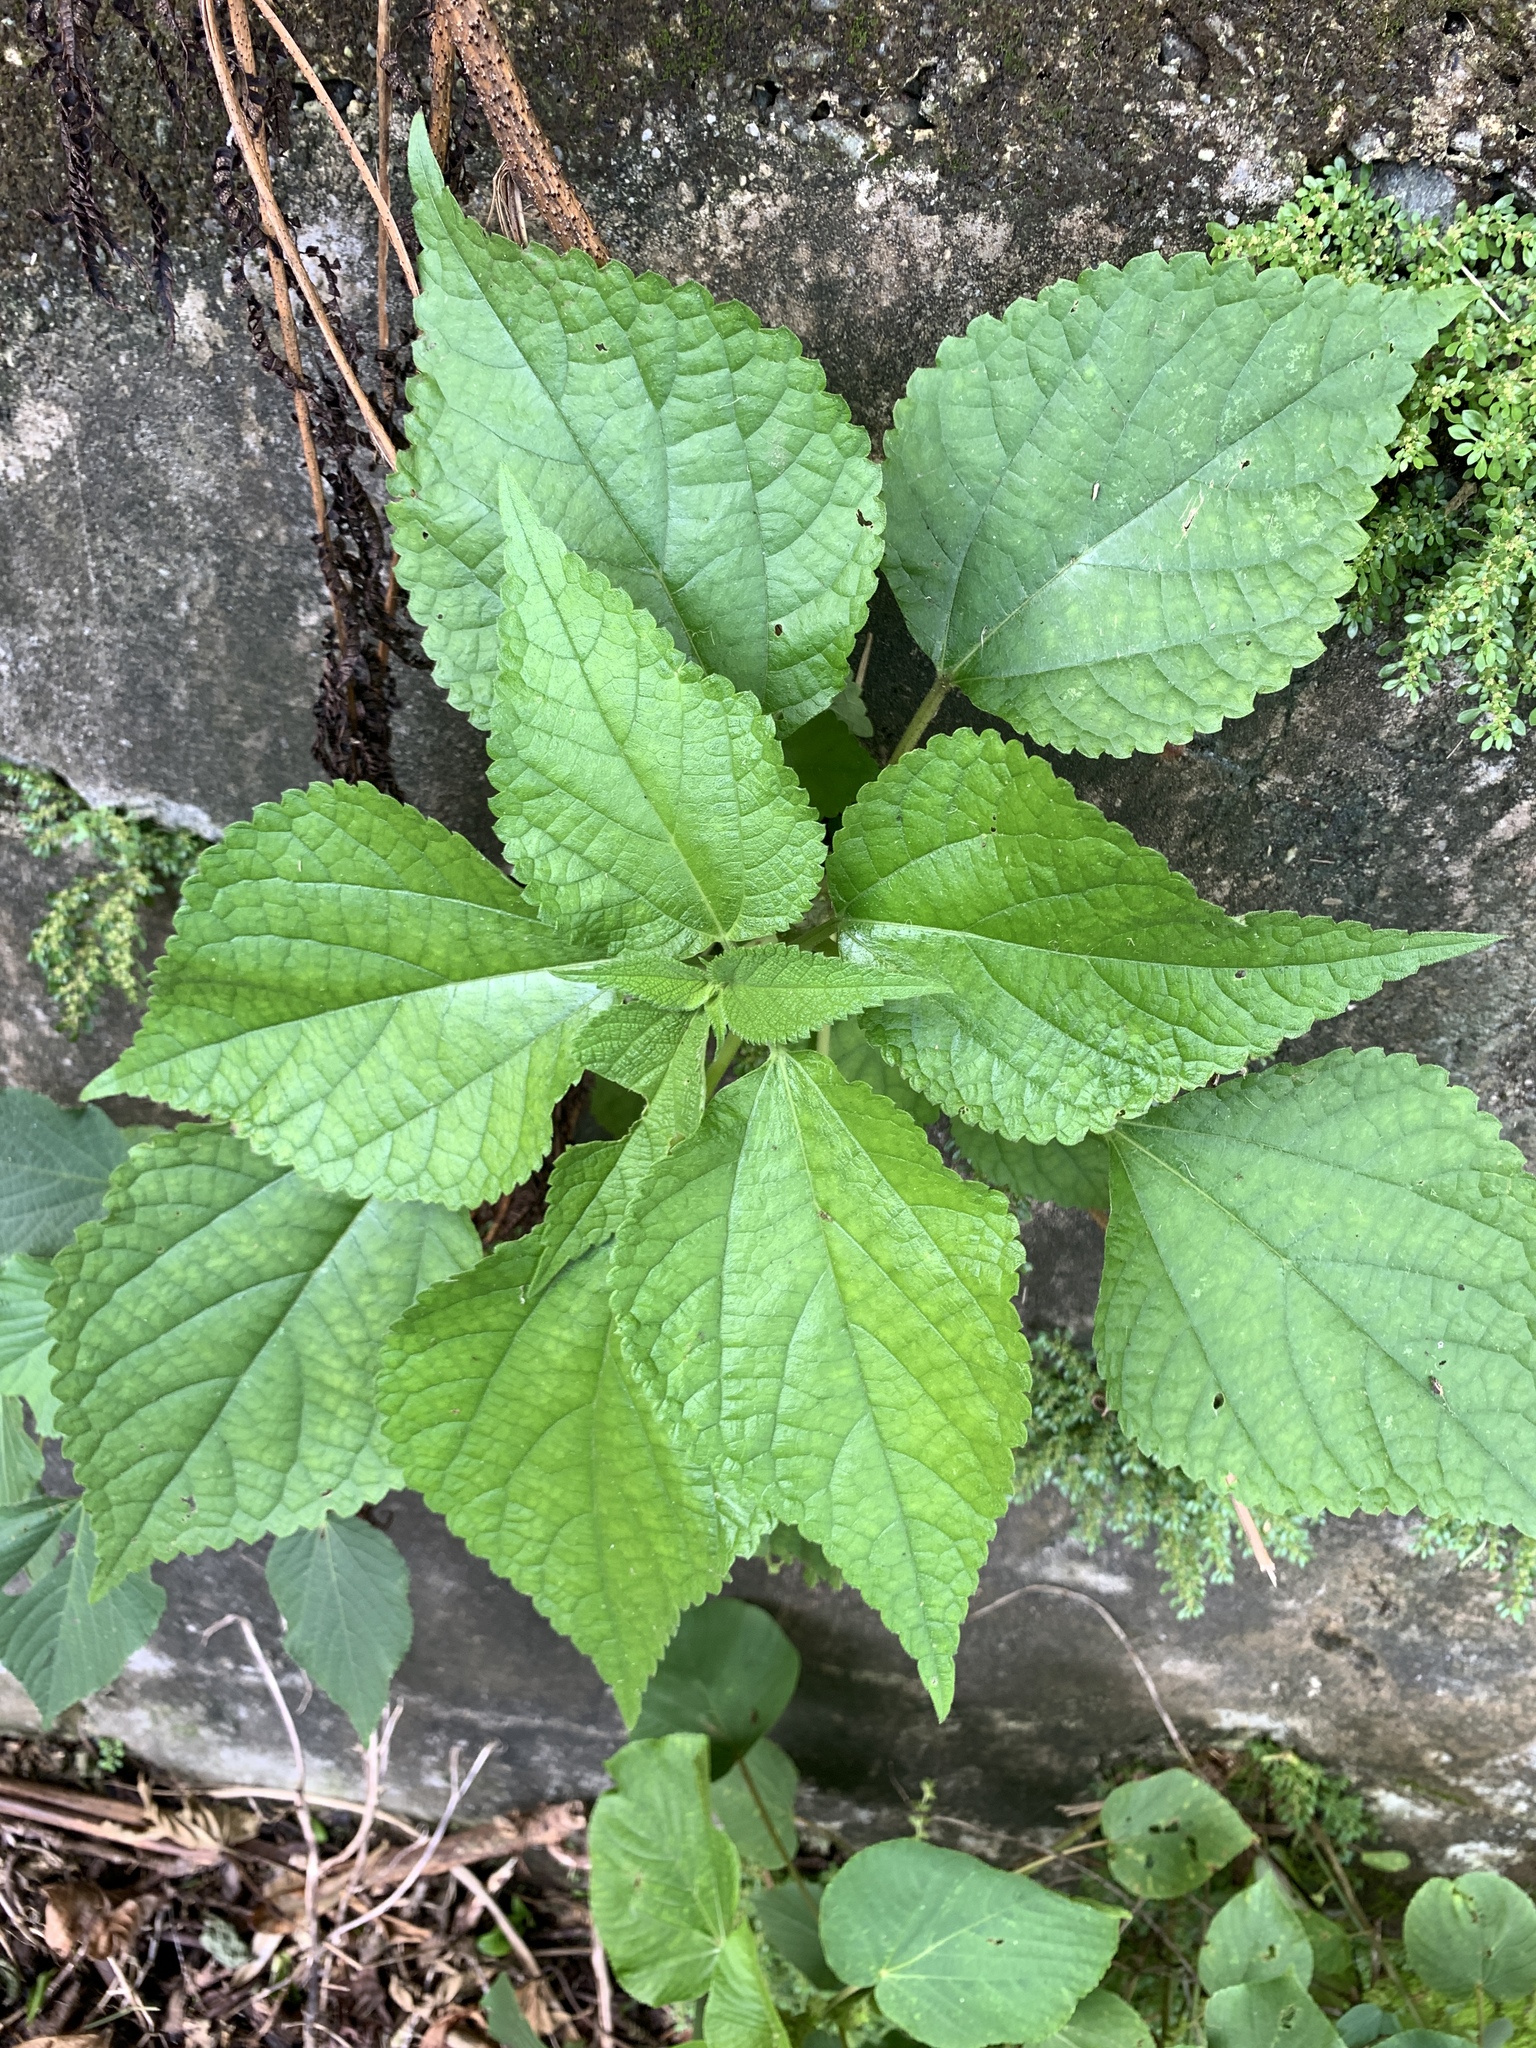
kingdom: Plantae
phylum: Tracheophyta
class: Magnoliopsida
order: Rosales
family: Urticaceae
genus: Boehmeria
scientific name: Boehmeria nivea
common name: Ramie chinese grass
